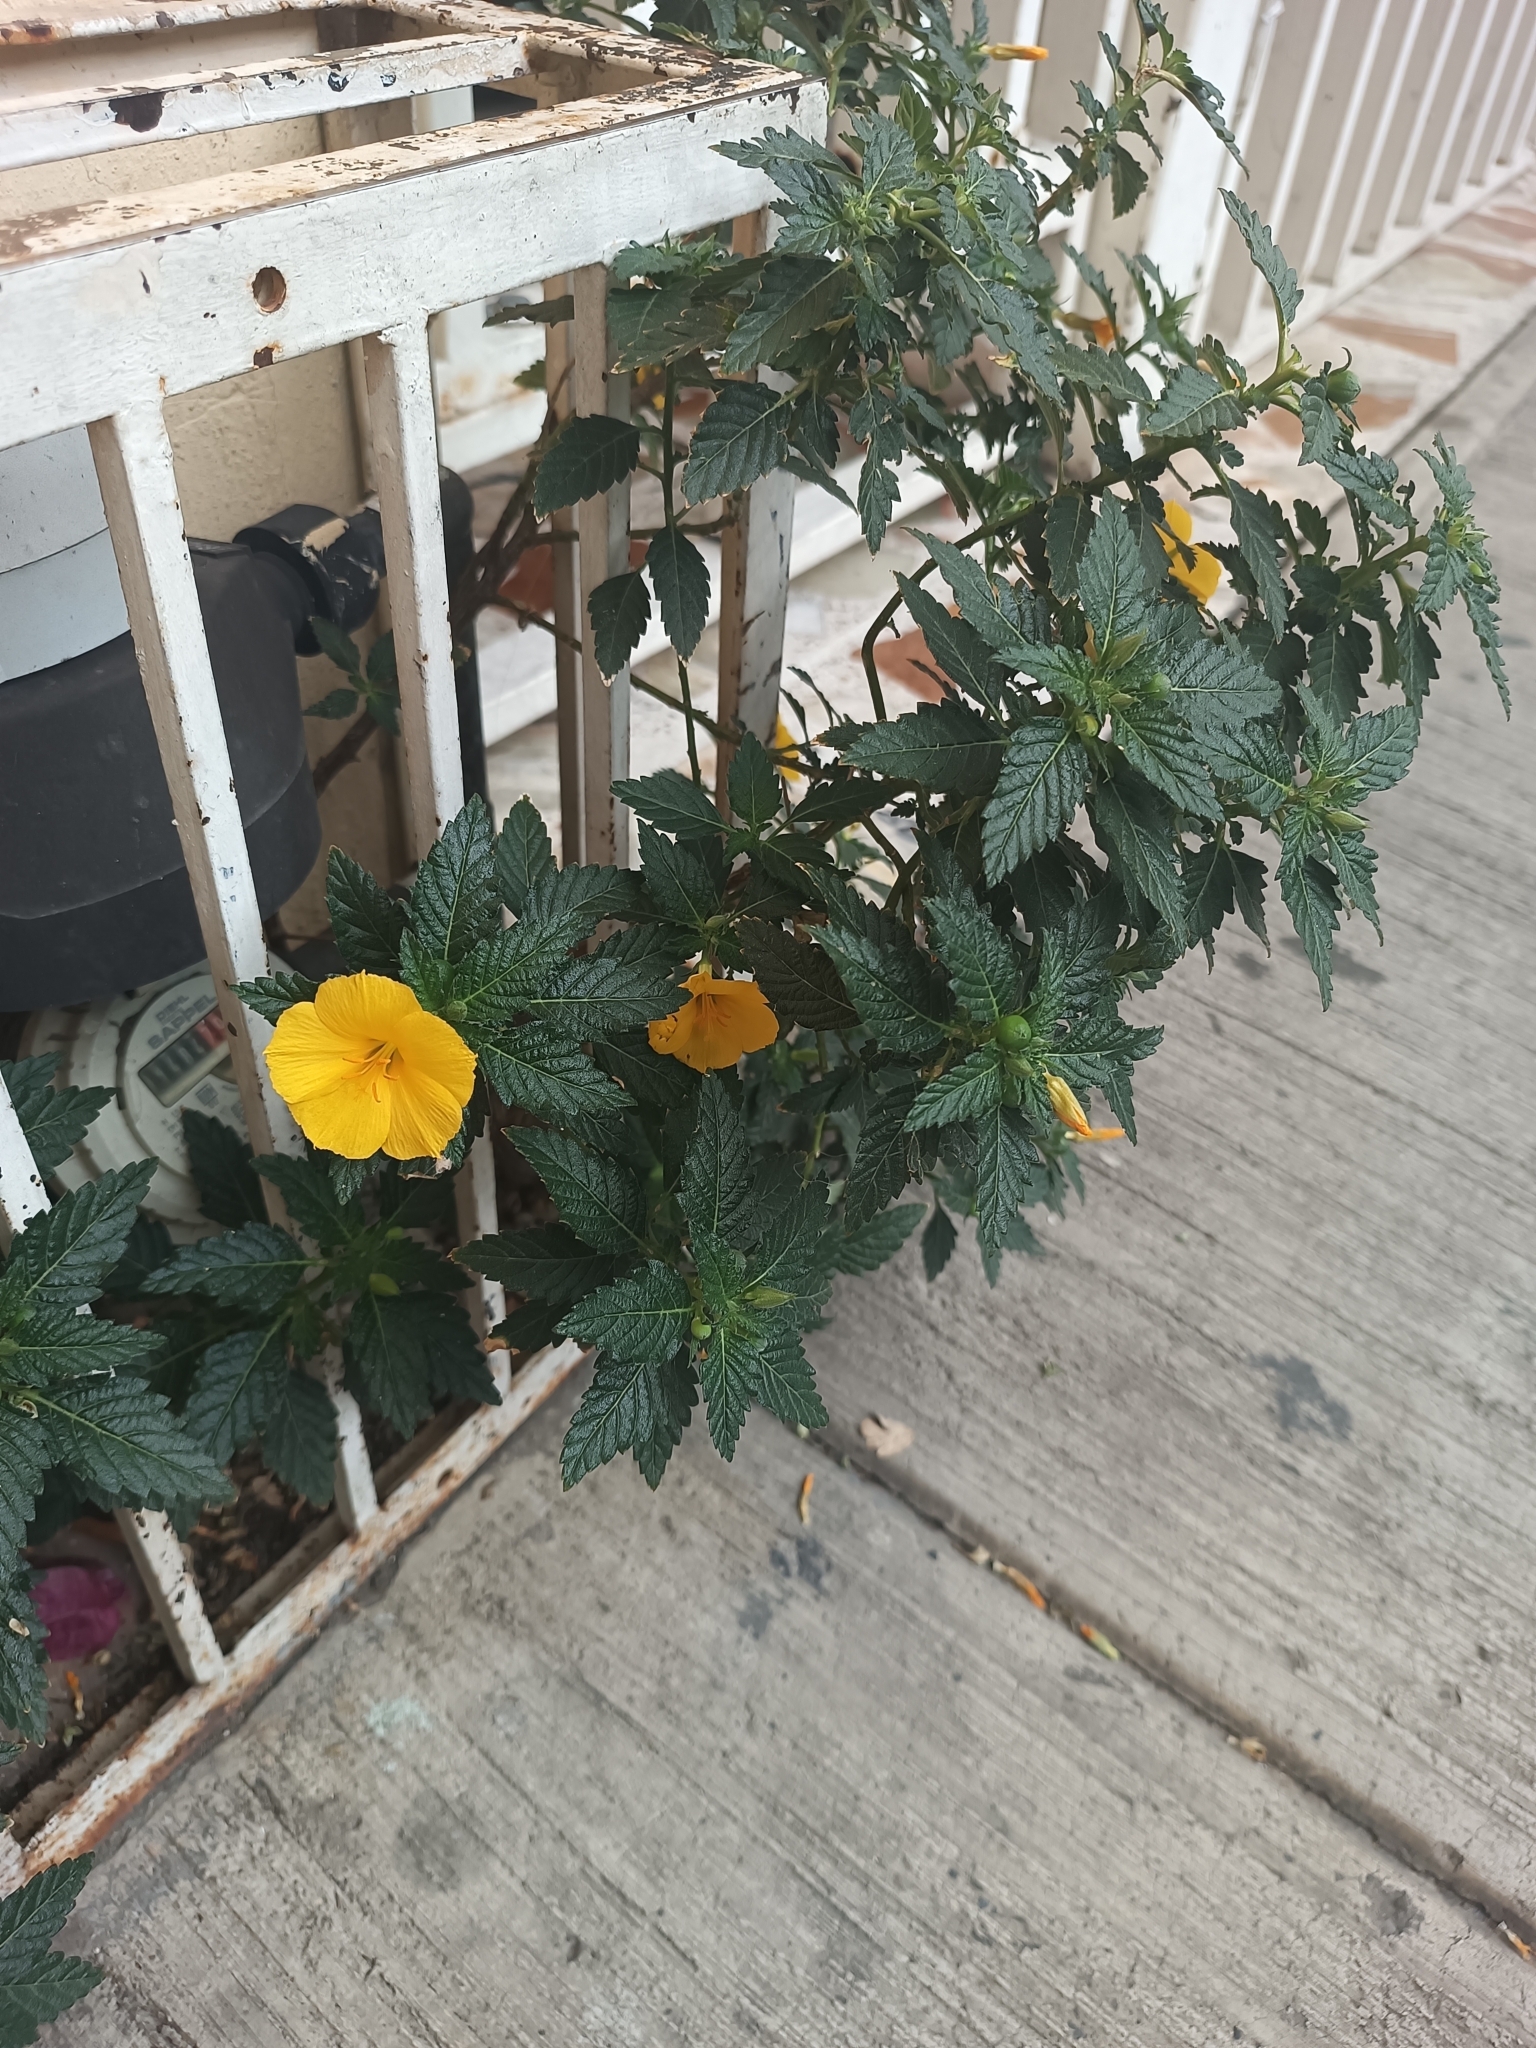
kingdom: Plantae
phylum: Tracheophyta
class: Magnoliopsida
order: Malpighiales
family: Turneraceae
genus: Turnera
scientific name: Turnera ulmifolia
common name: Ramgoat dashalong
